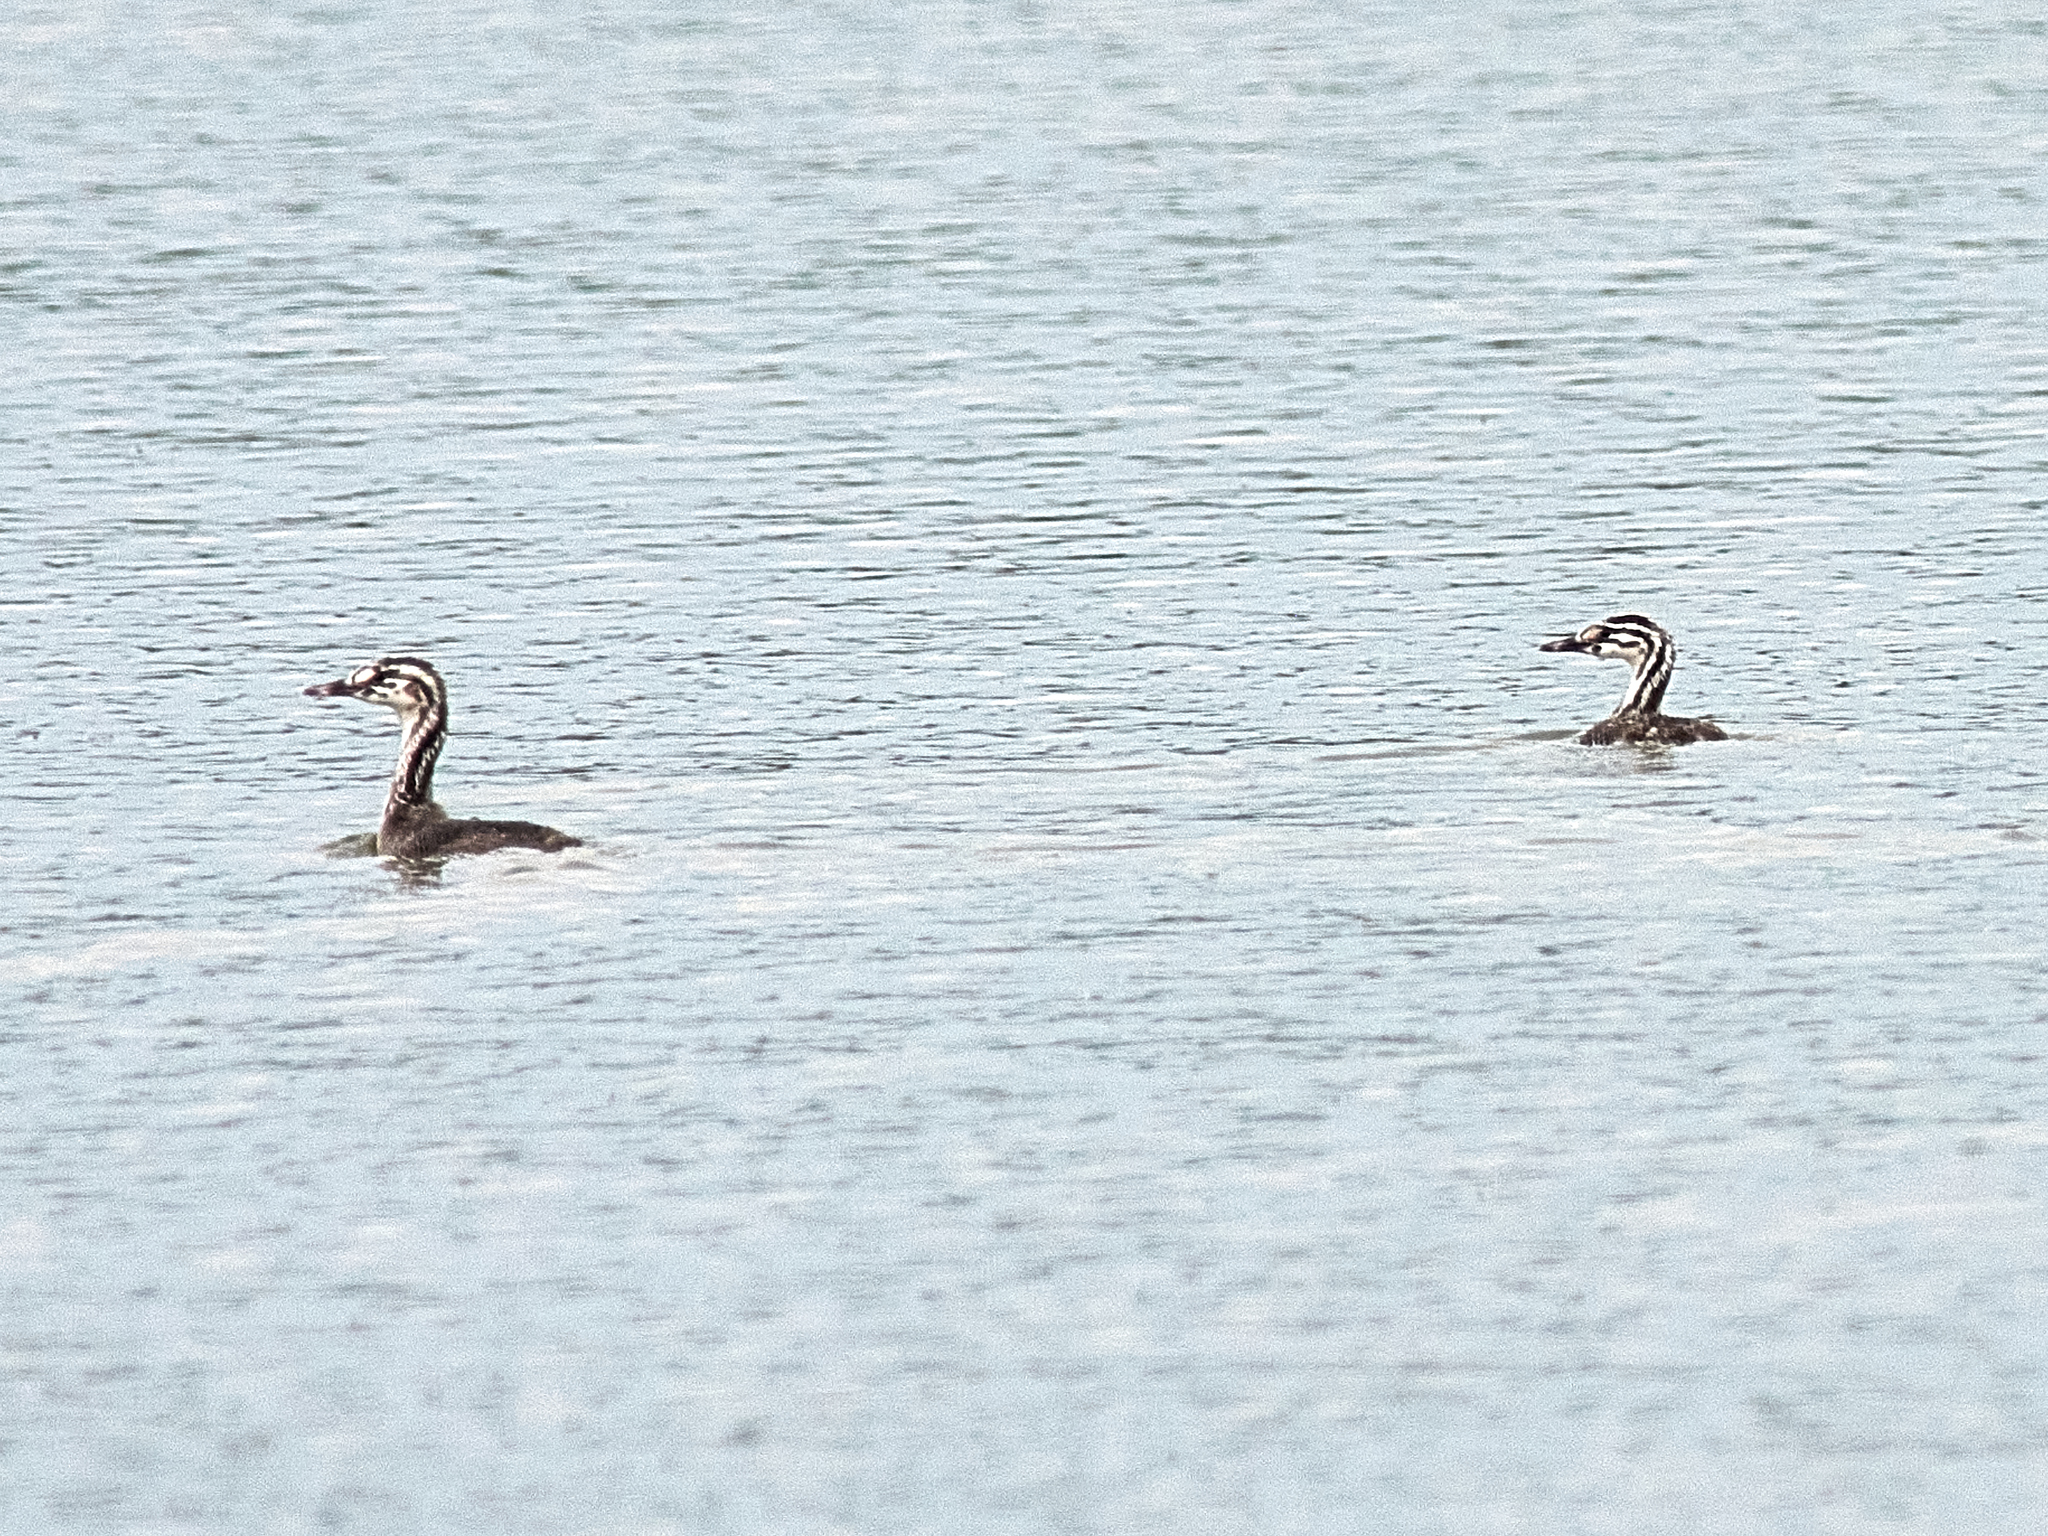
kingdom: Animalia
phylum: Chordata
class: Aves
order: Podicipediformes
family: Podicipedidae
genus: Podiceps
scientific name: Podiceps cristatus
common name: Great crested grebe
